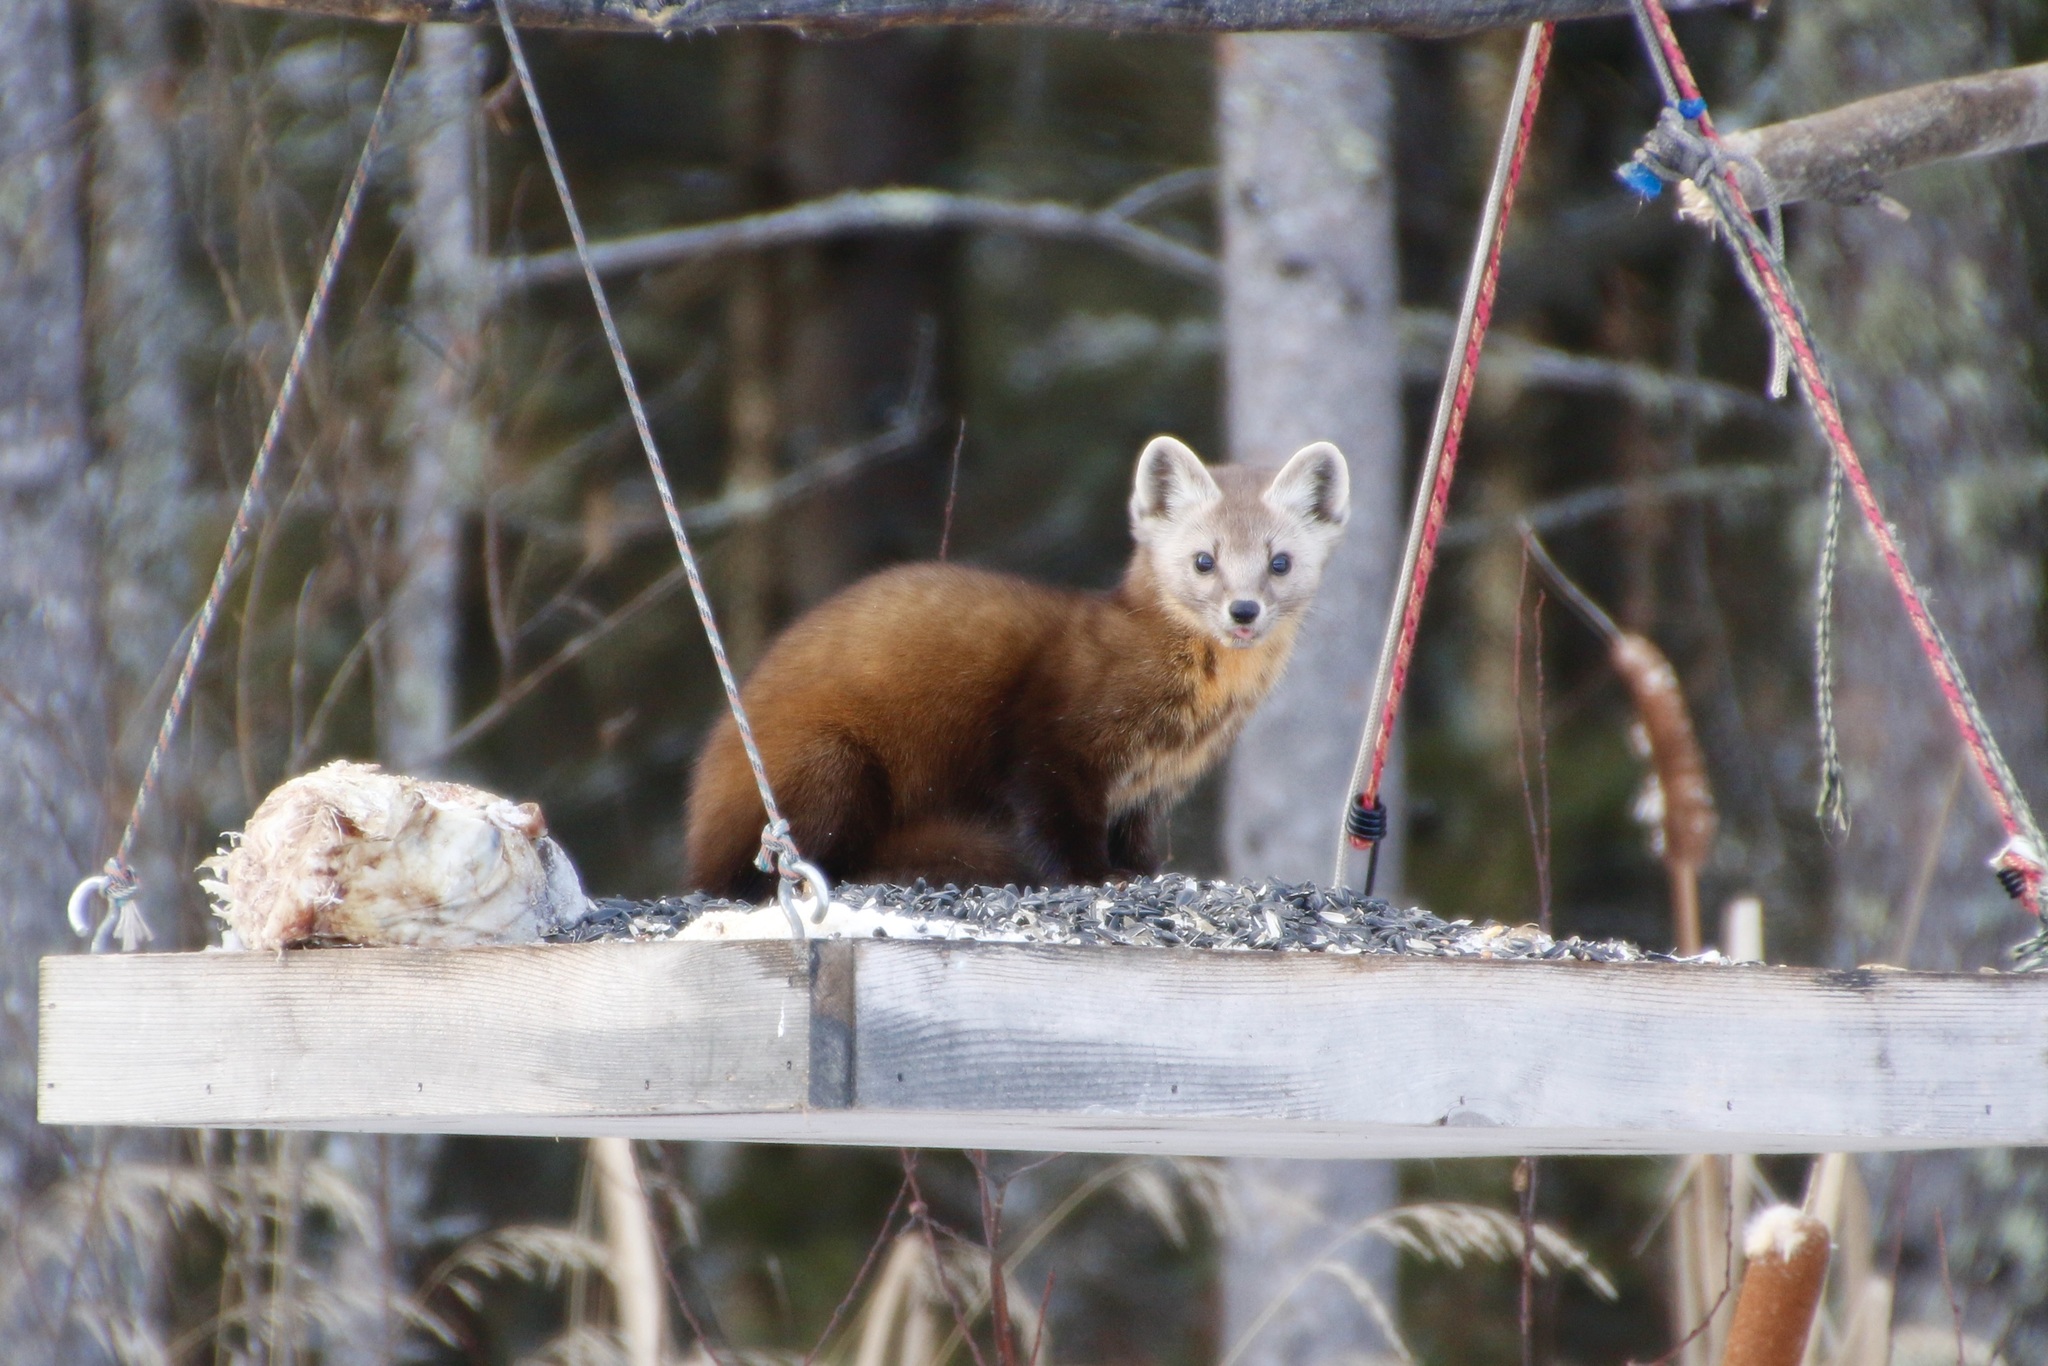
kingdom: Animalia
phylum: Chordata
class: Mammalia
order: Carnivora
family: Mustelidae
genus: Martes
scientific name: Martes americana
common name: American marten
